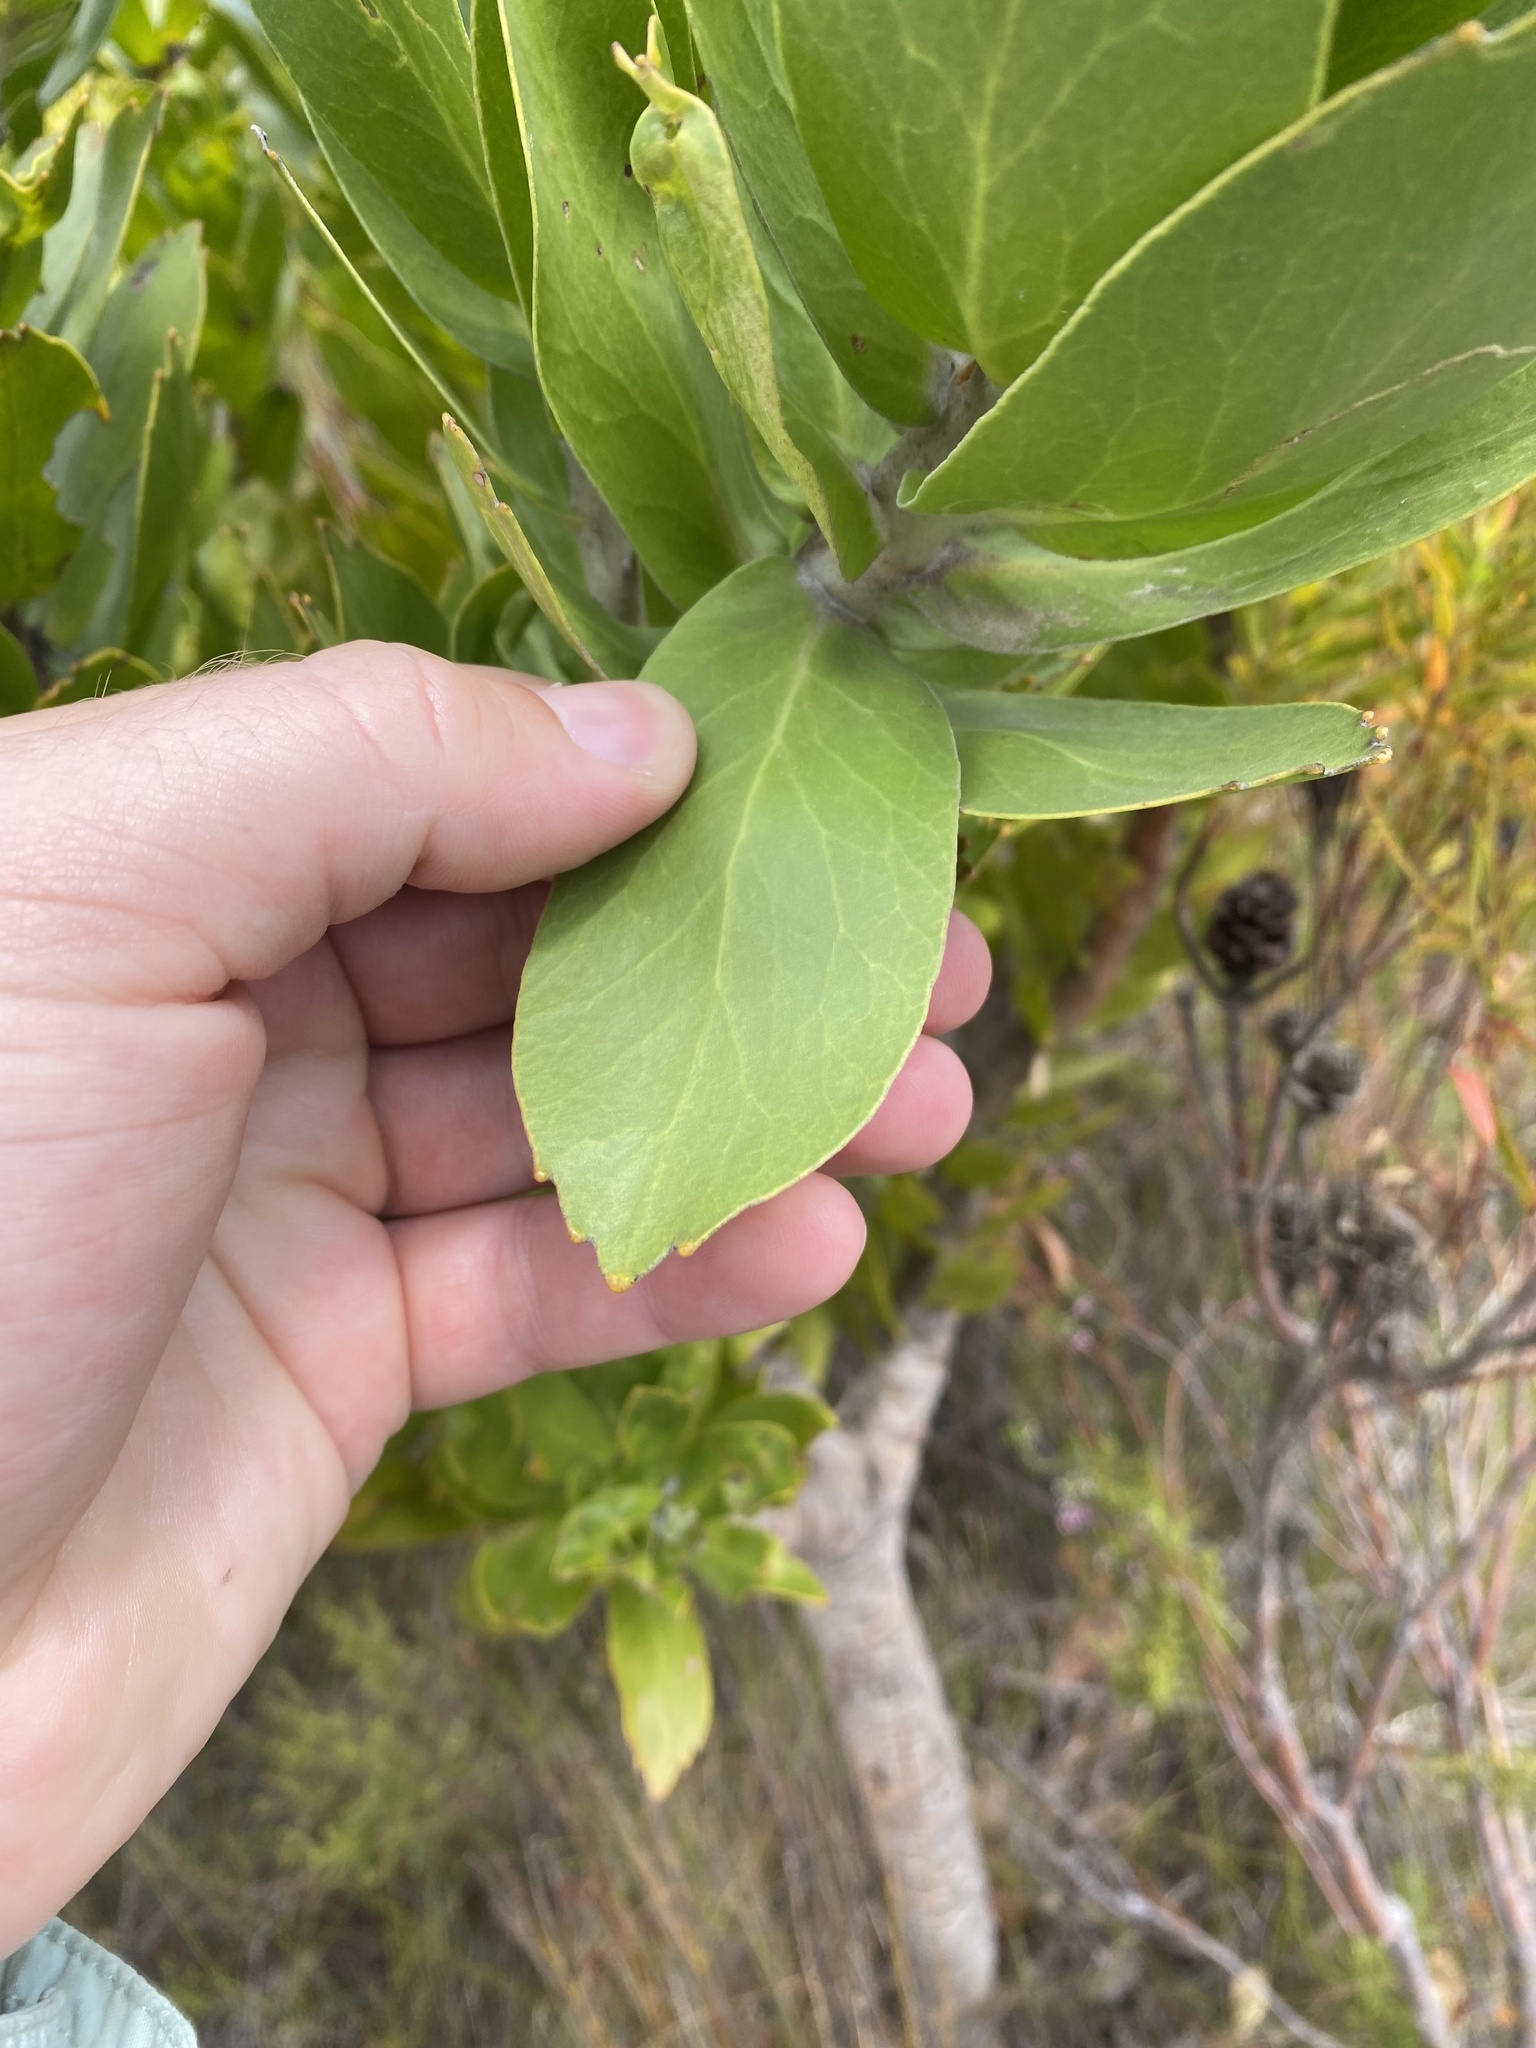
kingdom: Plantae
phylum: Tracheophyta
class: Magnoliopsida
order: Proteales
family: Proteaceae
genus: Leucospermum
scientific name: Leucospermum conocarpodendron
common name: Tree pincushion
